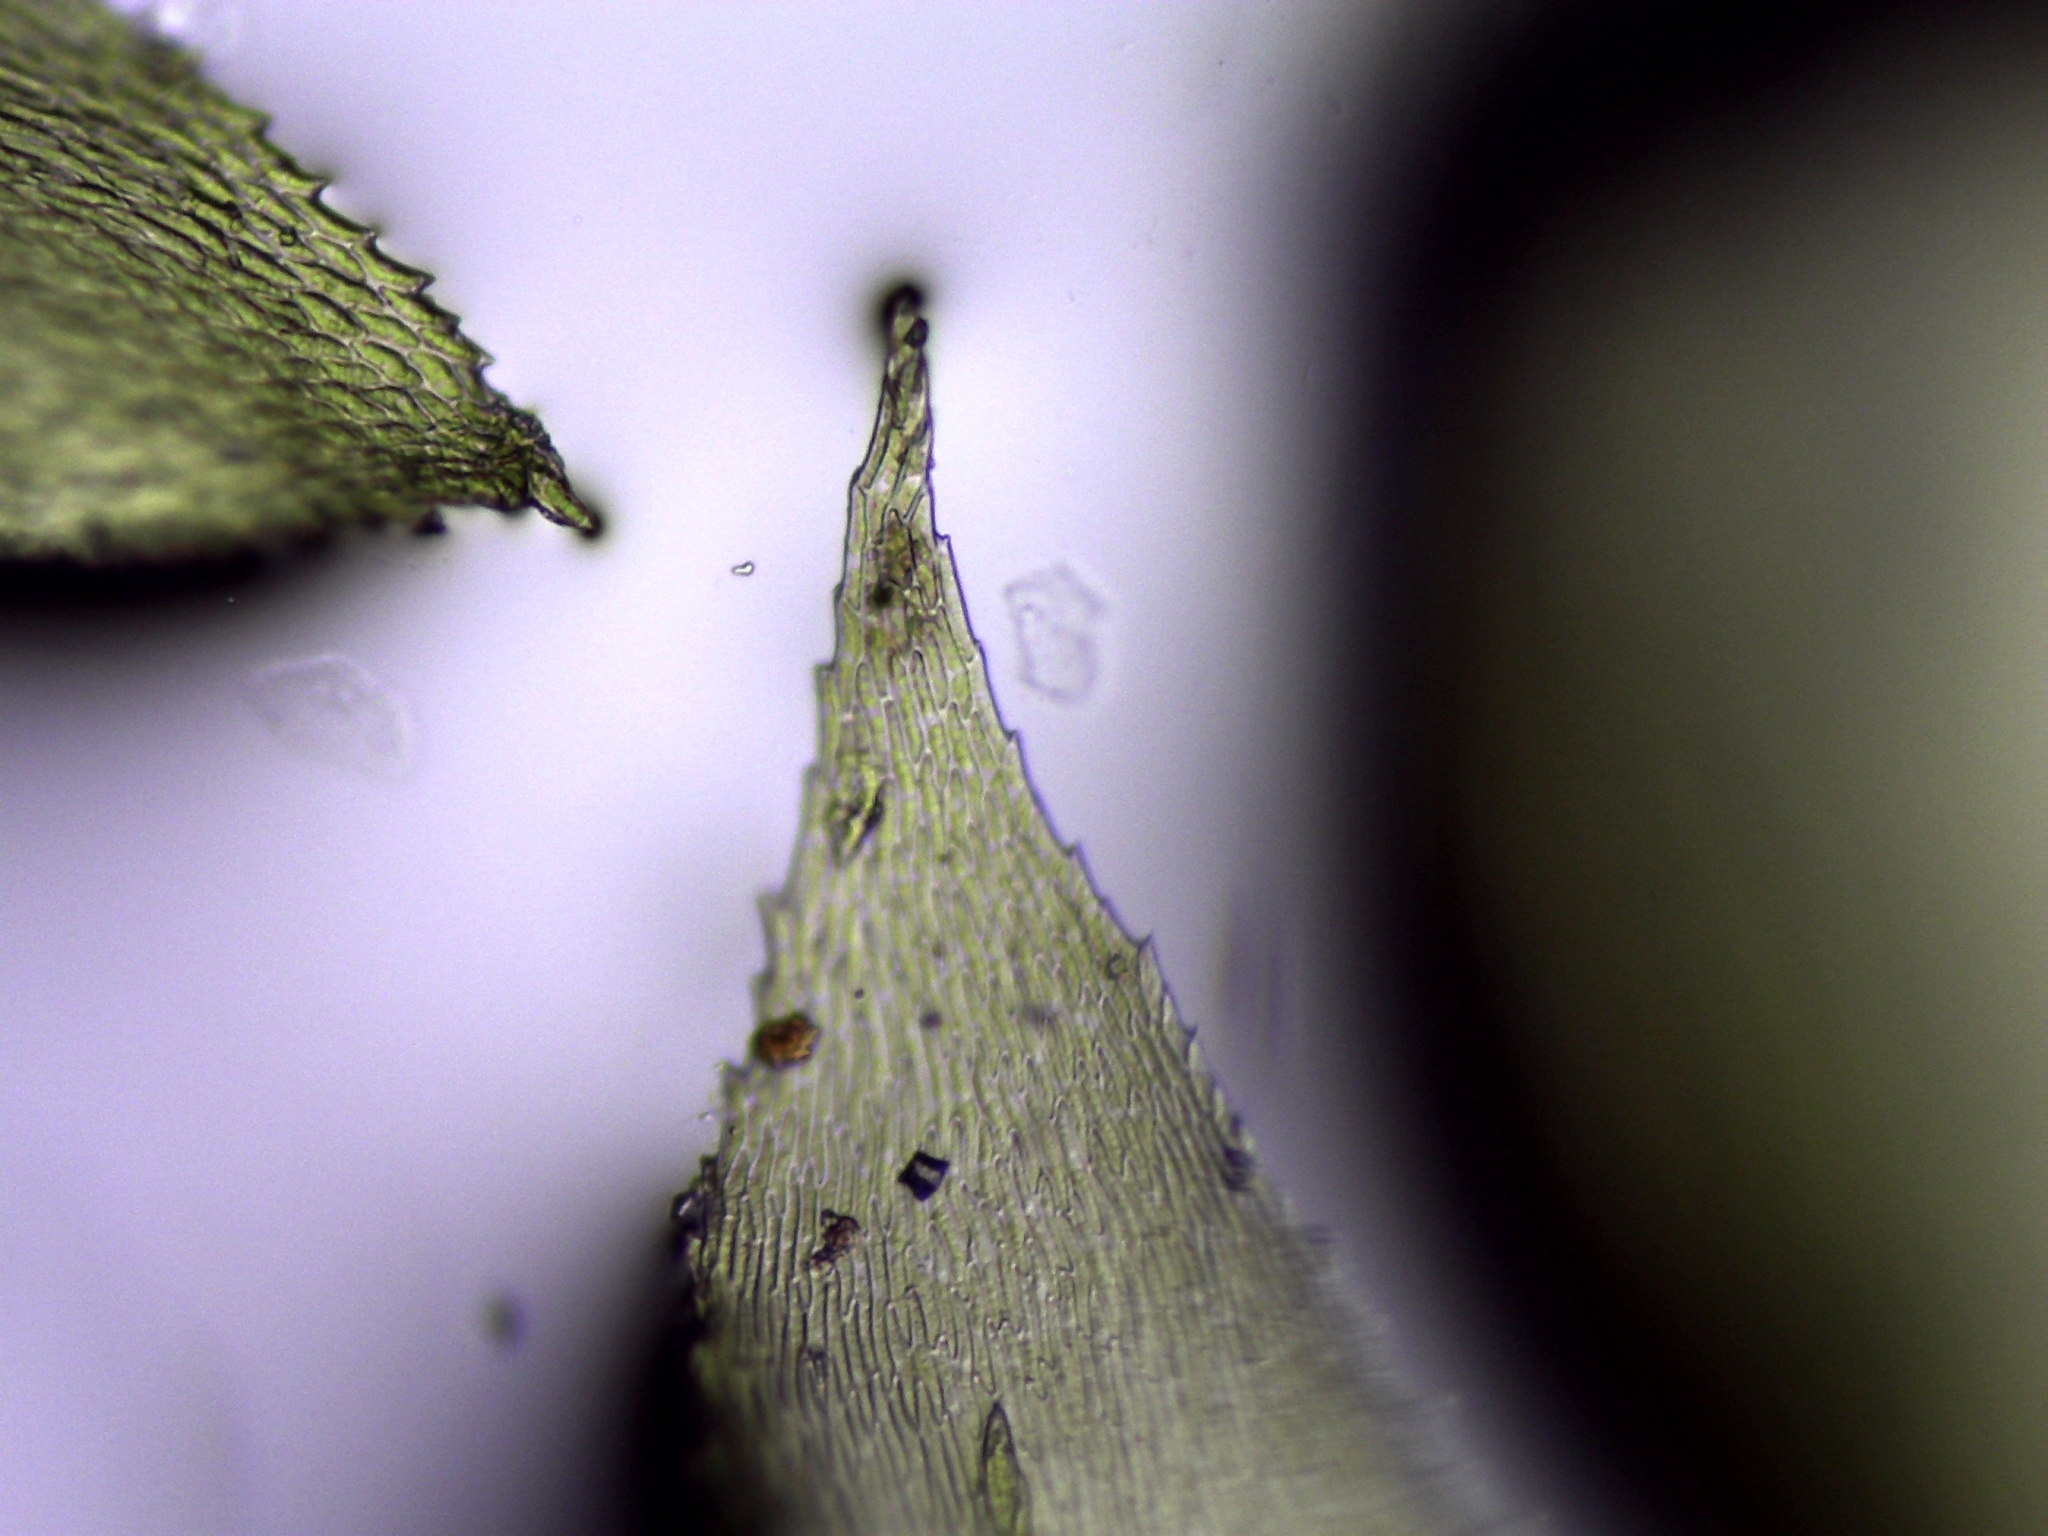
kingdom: Plantae
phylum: Bryophyta
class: Bryopsida
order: Hypnales
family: Brachytheciaceae
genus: Eurhynchiastrum
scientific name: Eurhynchiastrum pulchellum
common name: Elegant beaked moss
